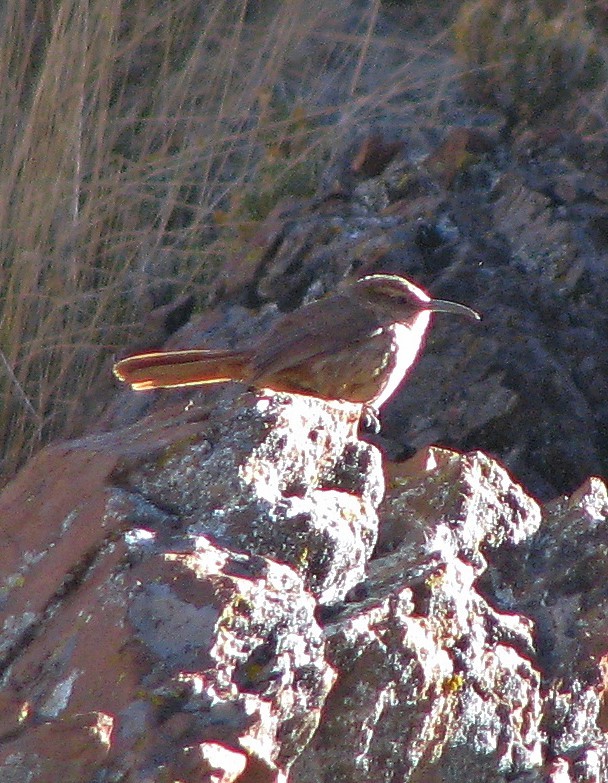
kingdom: Animalia
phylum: Chordata
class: Aves
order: Passeriformes
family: Furnariidae
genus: Upucerthia
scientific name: Upucerthia andaecola
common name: Rock earthcreeper
